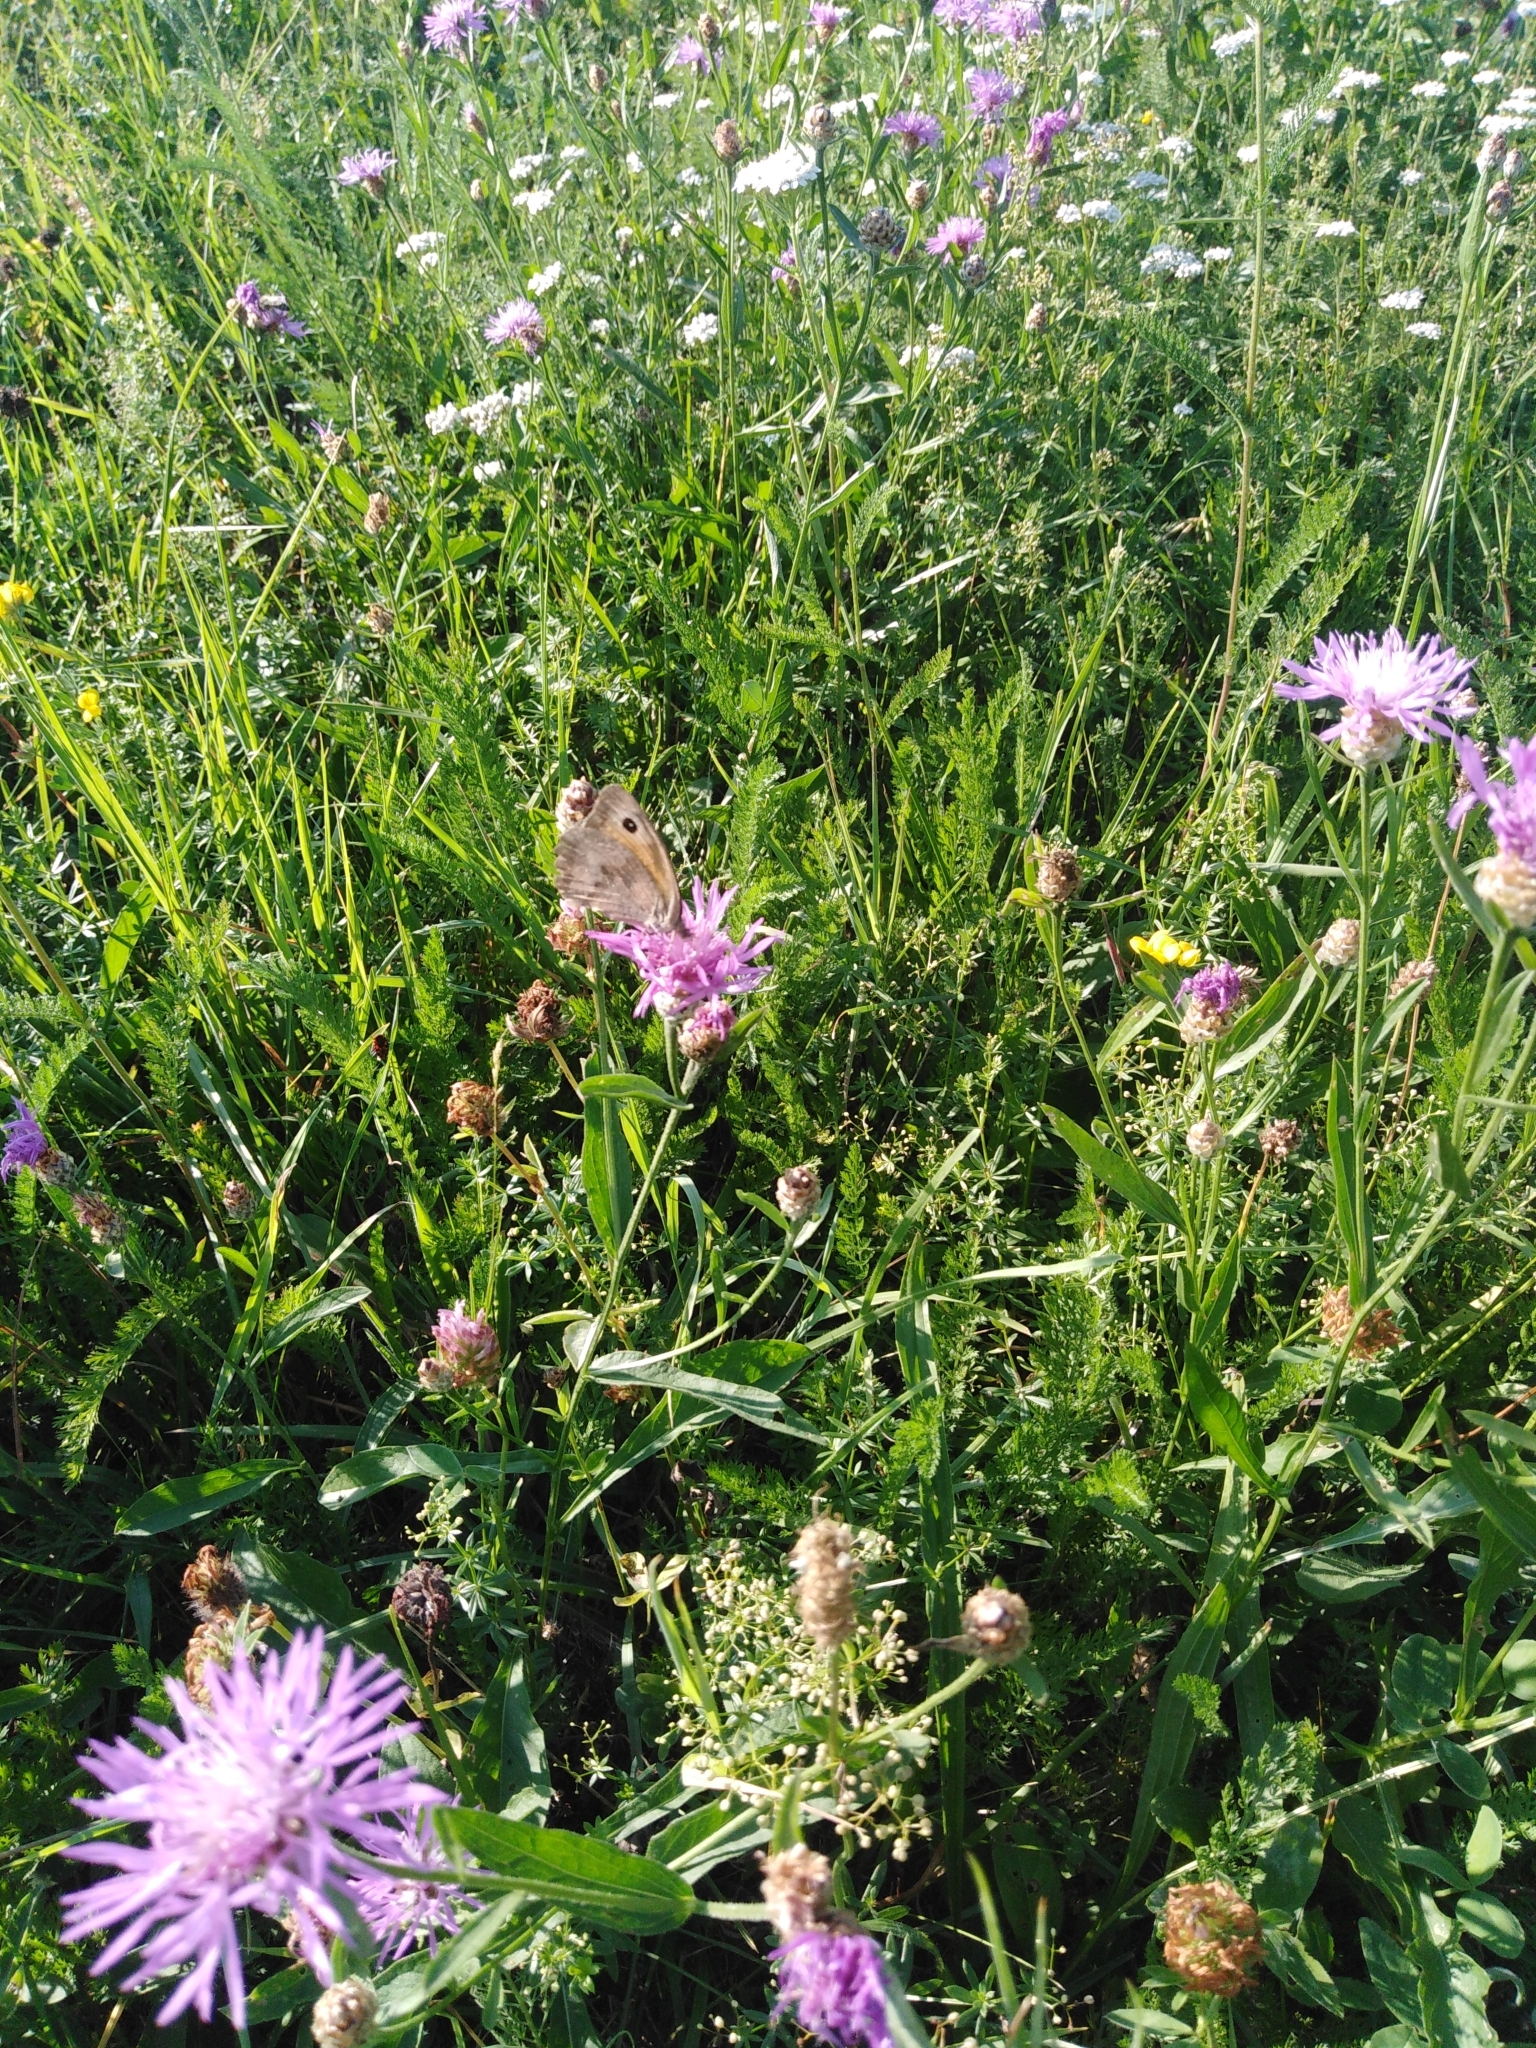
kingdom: Animalia
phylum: Arthropoda
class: Insecta
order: Lepidoptera
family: Nymphalidae
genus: Maniola
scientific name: Maniola jurtina
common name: Meadow brown
